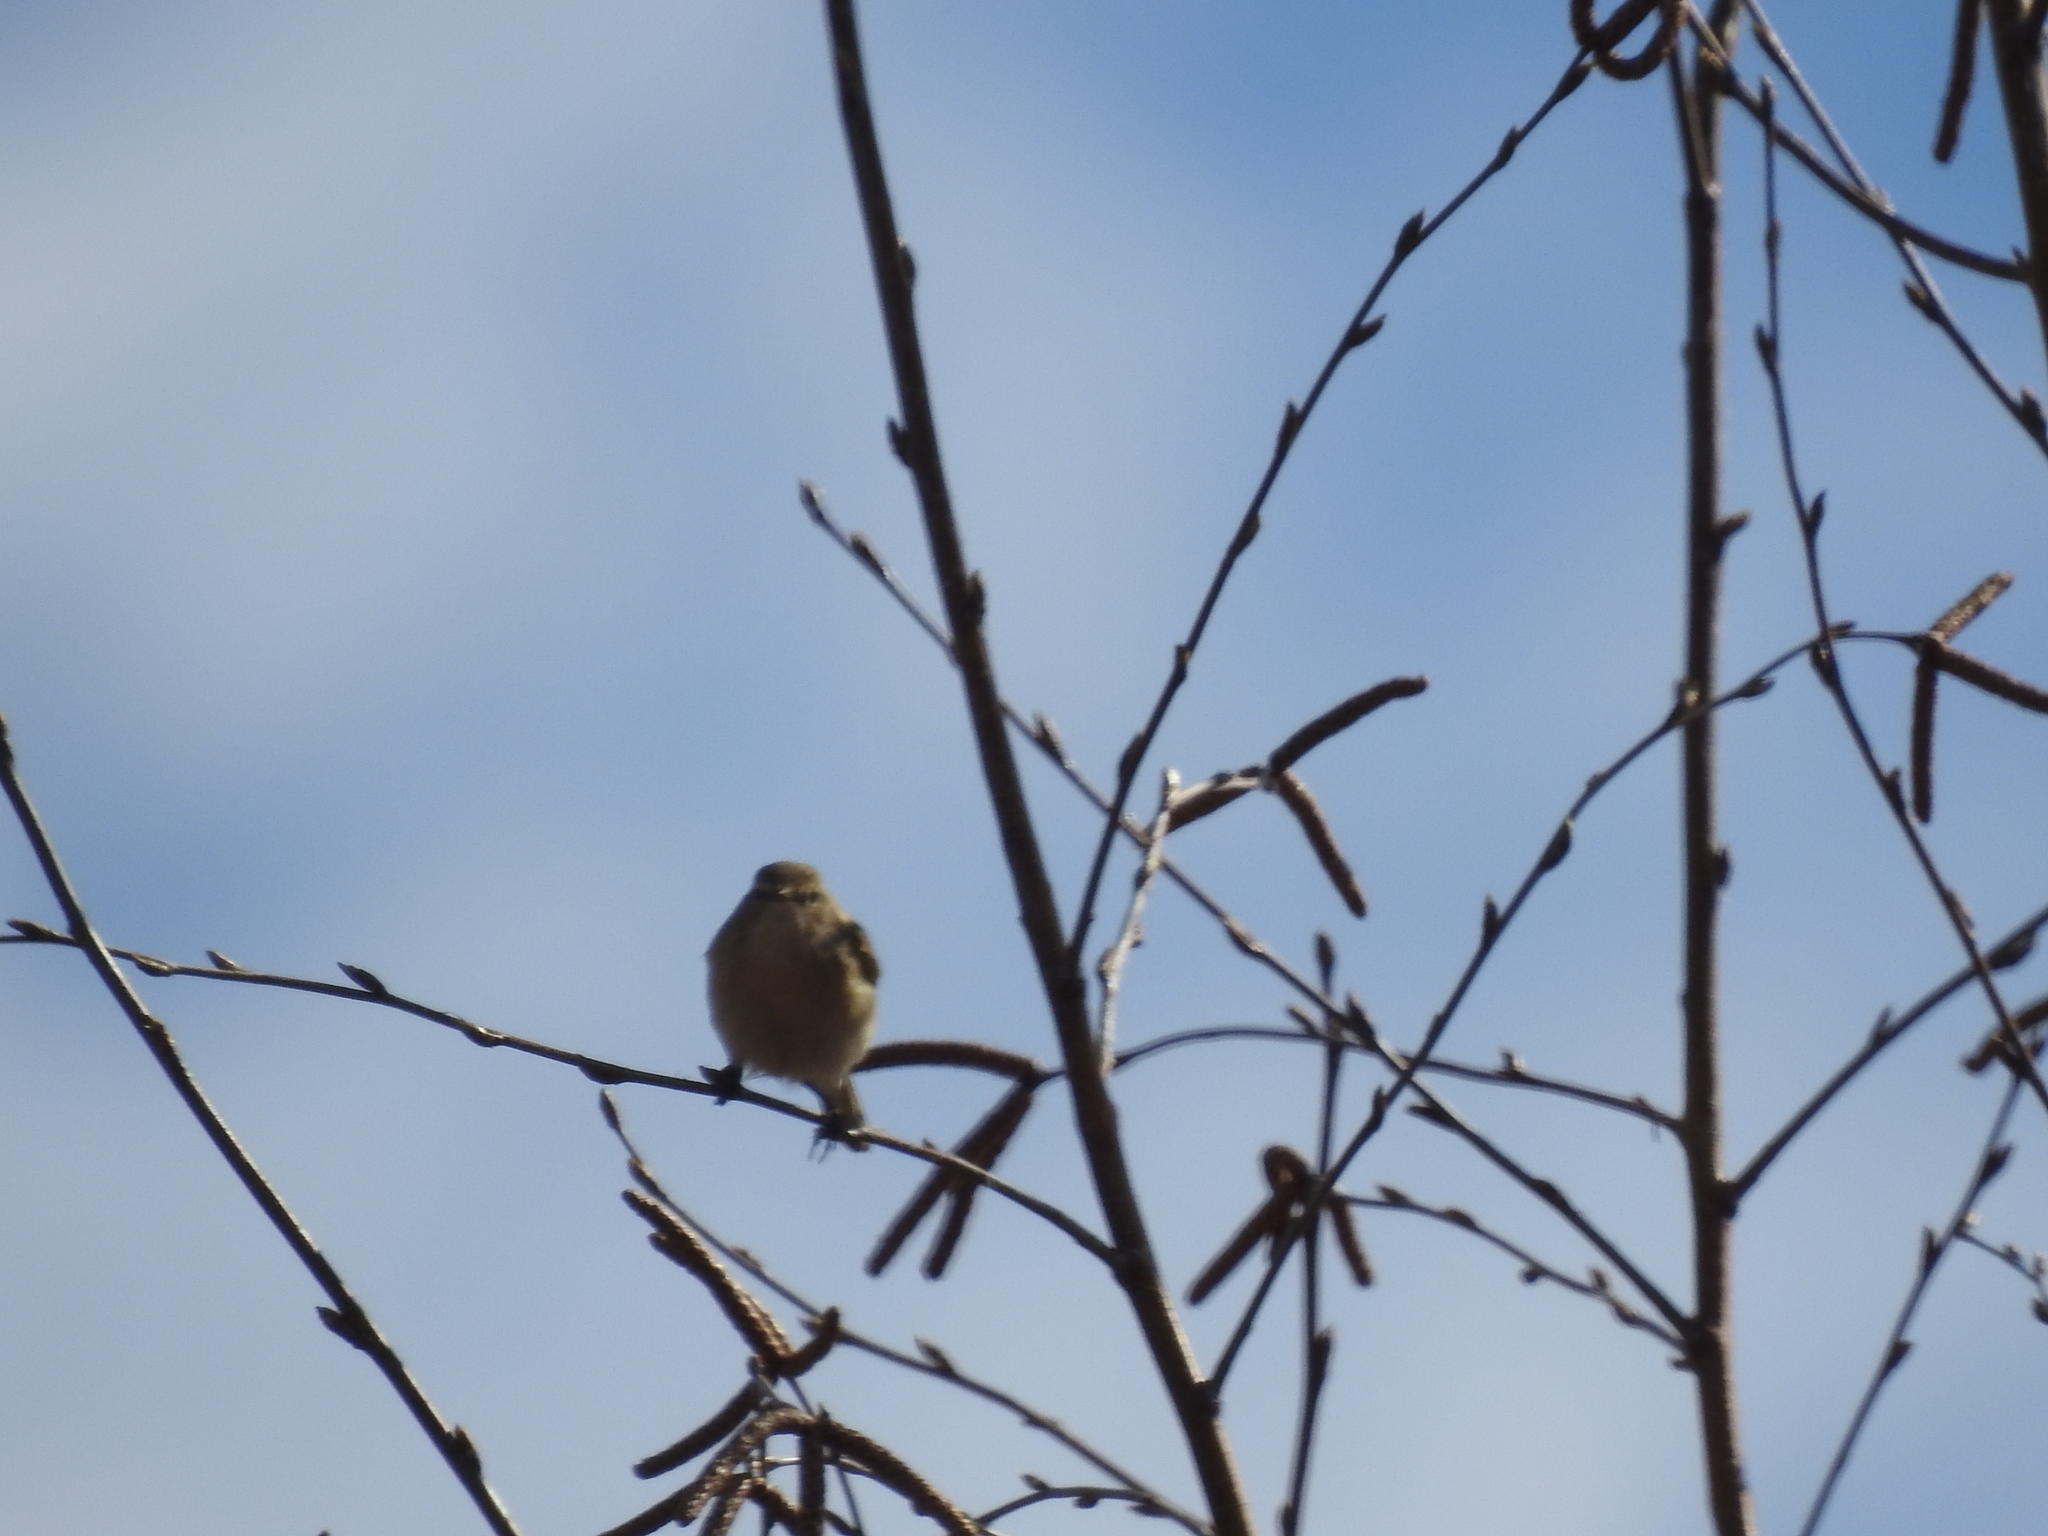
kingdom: Animalia
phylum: Chordata
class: Aves
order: Passeriformes
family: Phylloscopidae
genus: Phylloscopus
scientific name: Phylloscopus collybita
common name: Common chiffchaff
